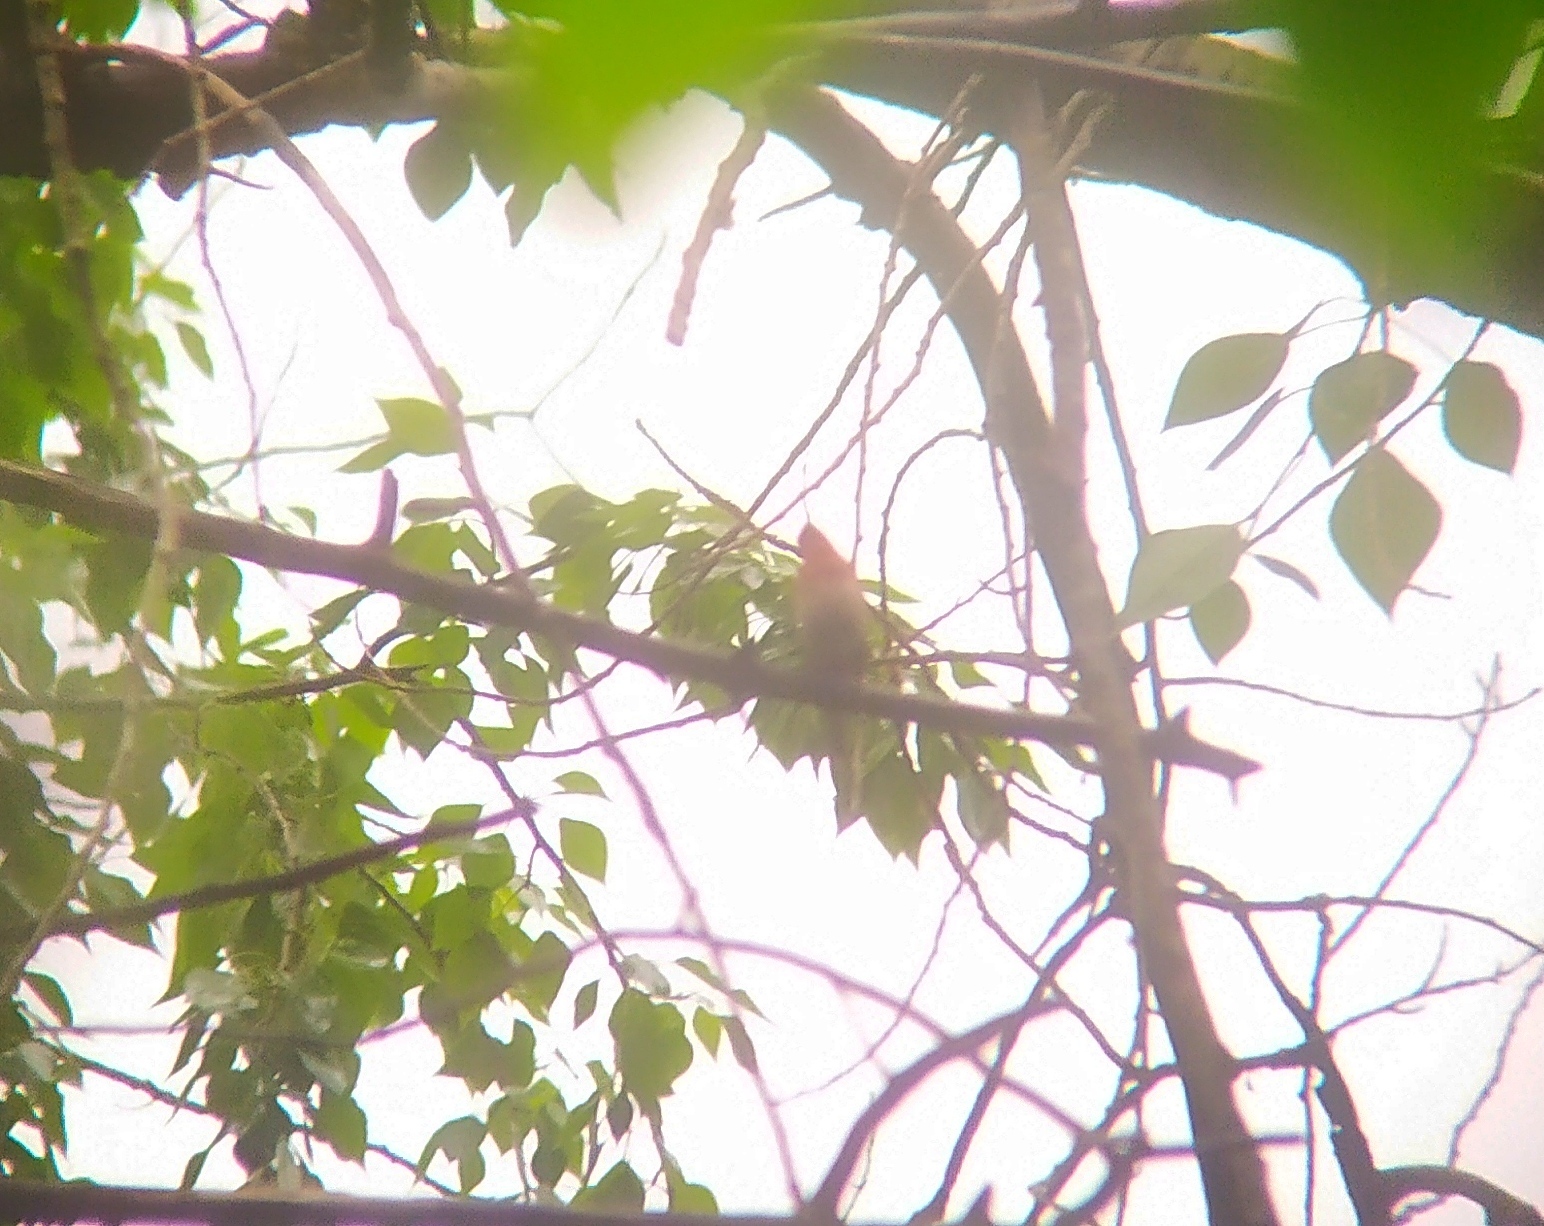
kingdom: Animalia
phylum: Chordata
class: Aves
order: Passeriformes
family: Fringillidae
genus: Carpodacus
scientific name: Carpodacus erythrinus
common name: Common rosefinch
